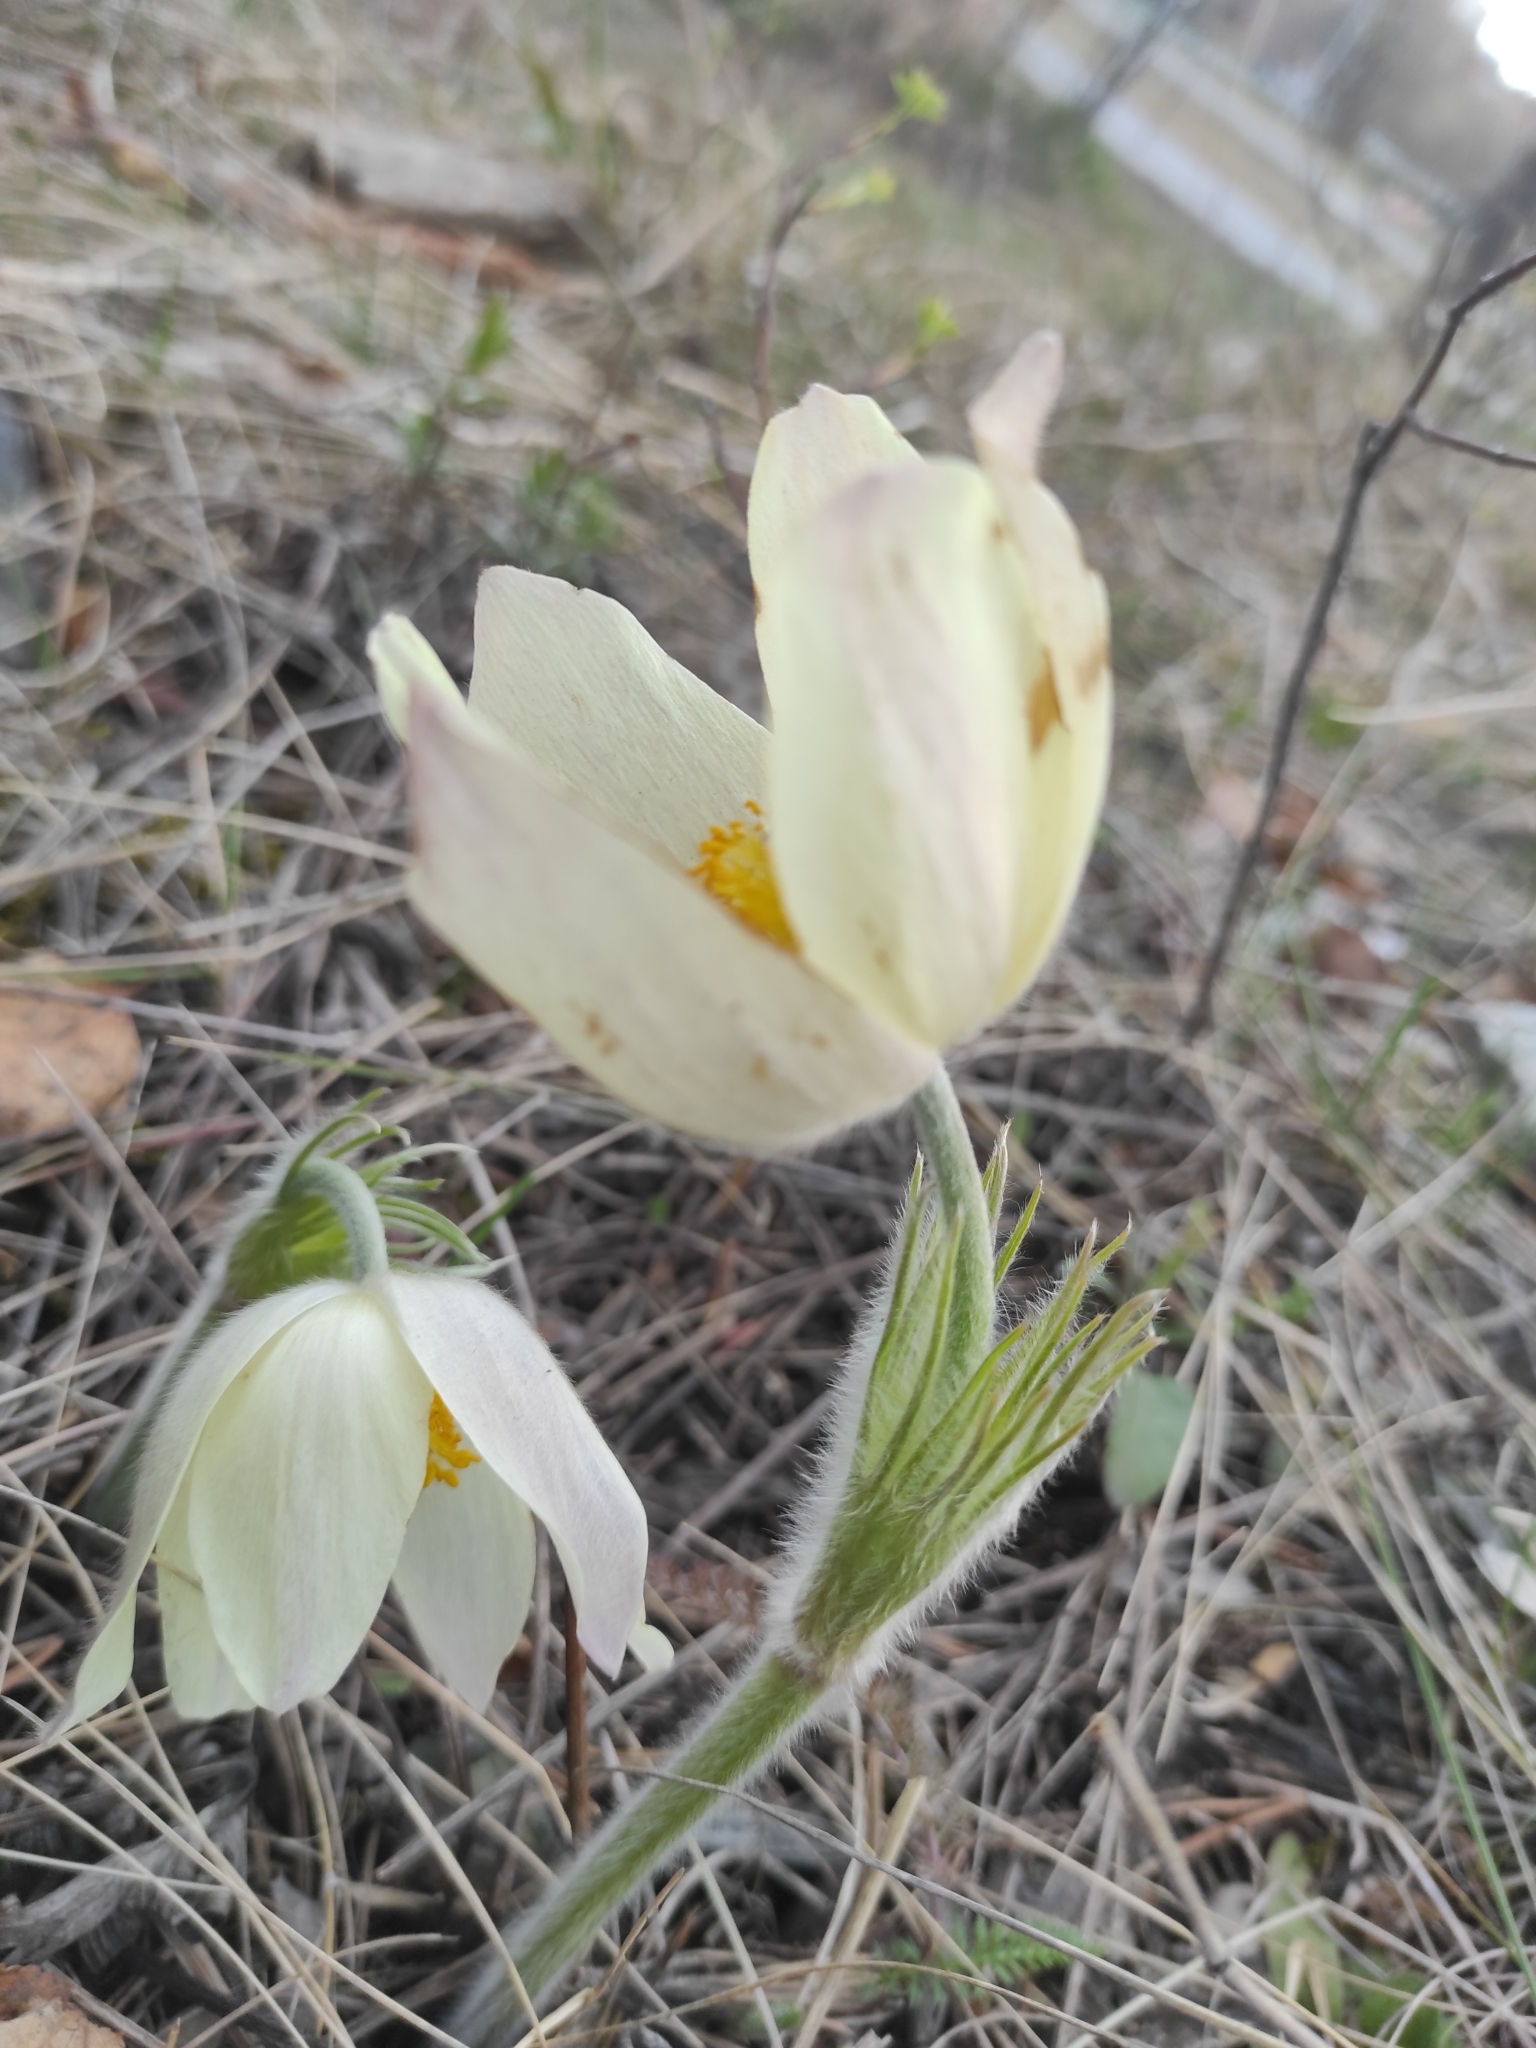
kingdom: Plantae
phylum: Tracheophyta
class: Magnoliopsida
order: Ranunculales
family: Ranunculaceae
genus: Pulsatilla
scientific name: Pulsatilla patens
